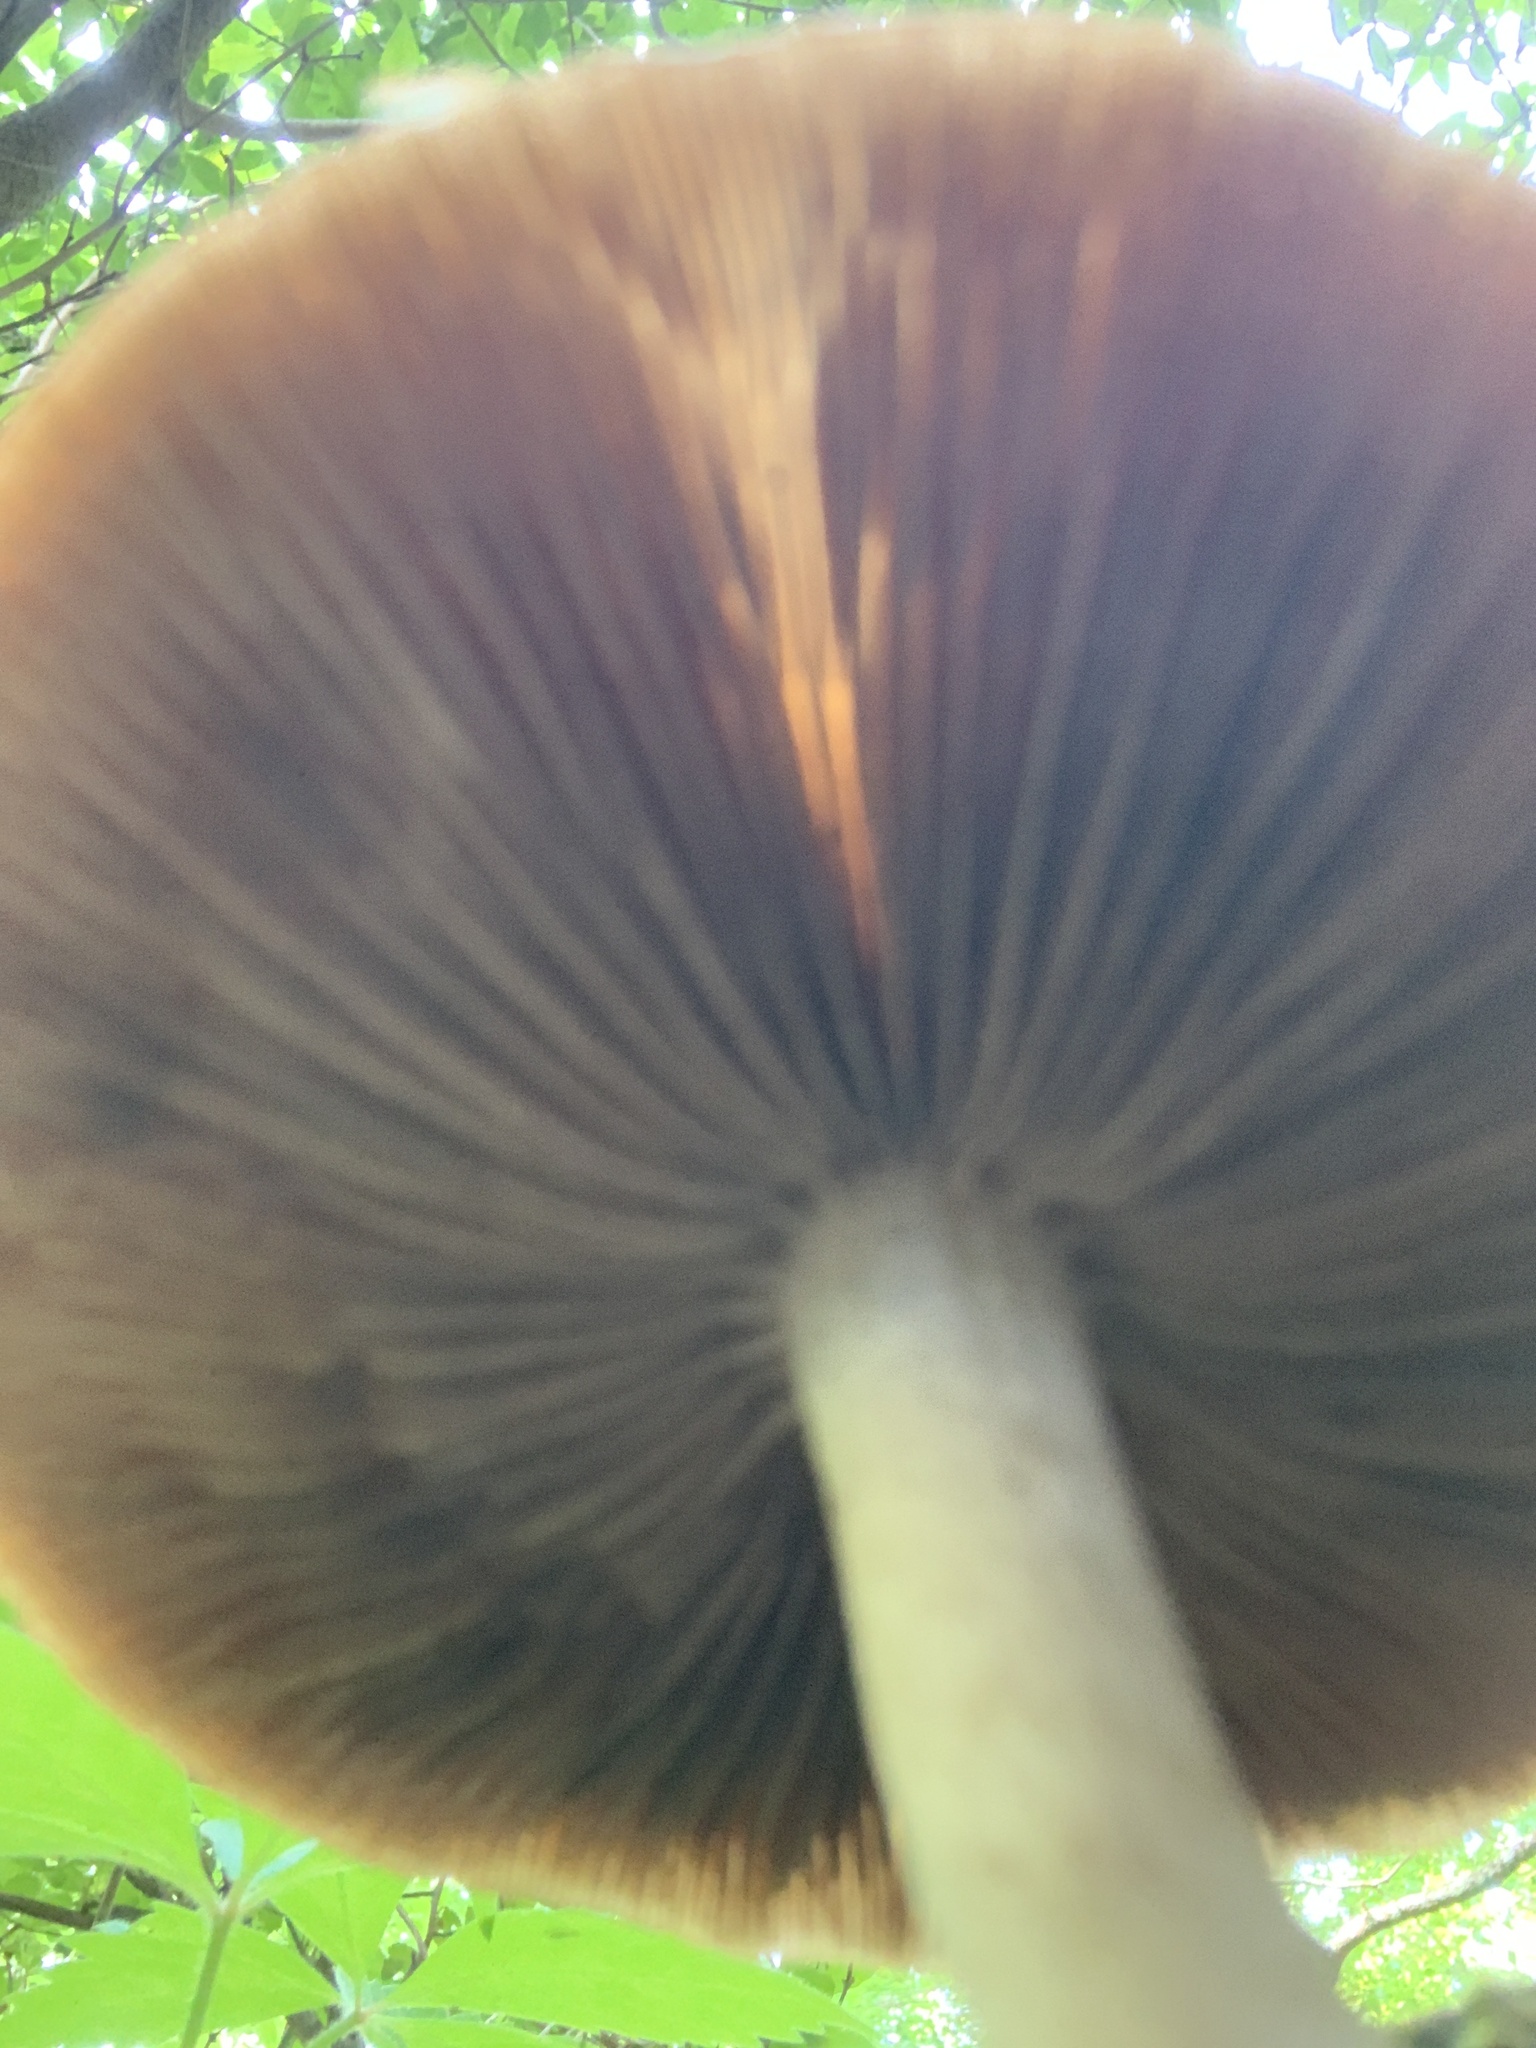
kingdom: Fungi
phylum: Basidiomycota
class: Agaricomycetes
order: Agaricales
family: Psathyrellaceae
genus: Typhrasa
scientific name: Typhrasa gossypina
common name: Wrinkled psathyrella
